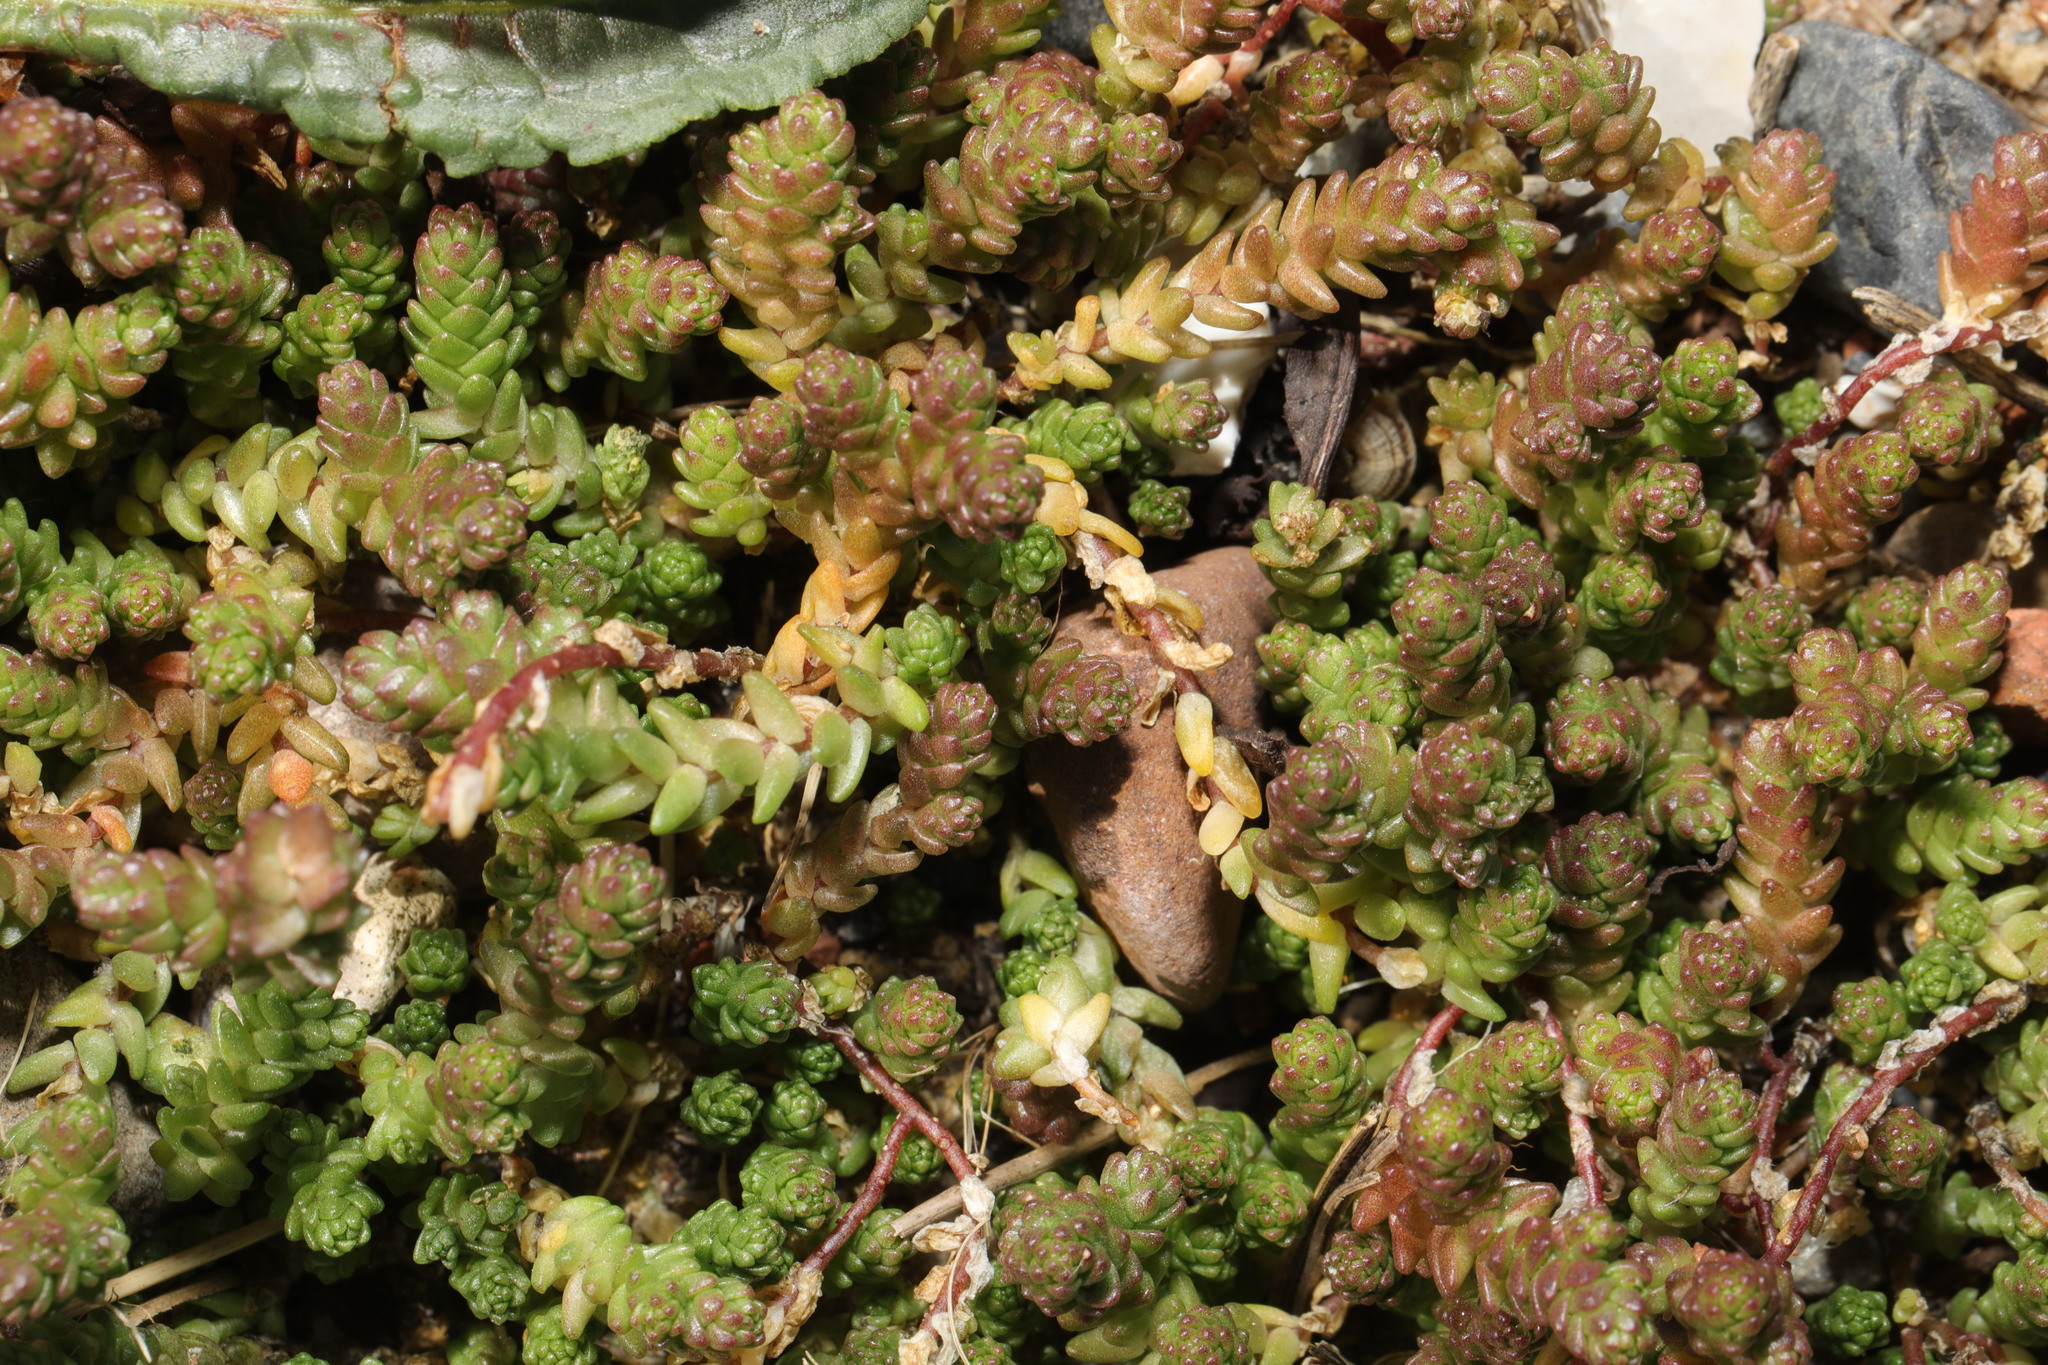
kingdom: Plantae
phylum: Tracheophyta
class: Magnoliopsida
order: Saxifragales
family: Crassulaceae
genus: Sedum
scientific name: Sedum acre
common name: Biting stonecrop
